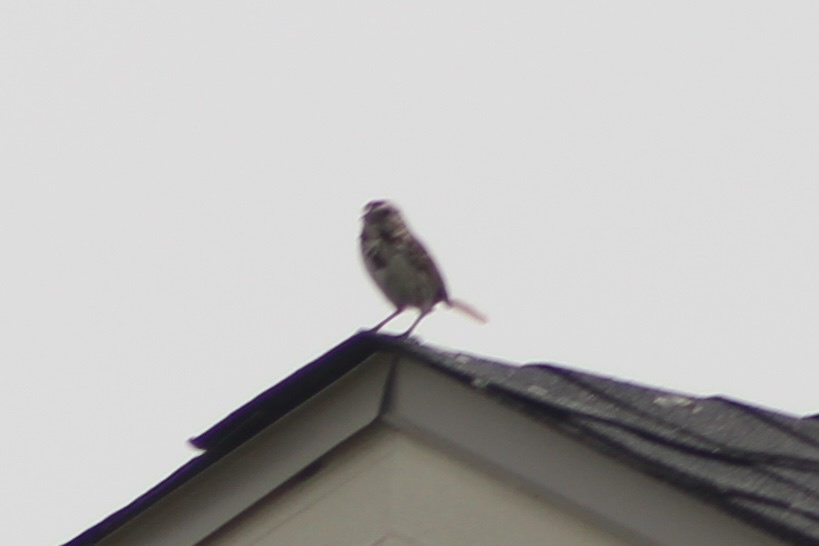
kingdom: Animalia
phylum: Chordata
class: Aves
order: Passeriformes
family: Passerellidae
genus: Melospiza
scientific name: Melospiza melodia
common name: Song sparrow
